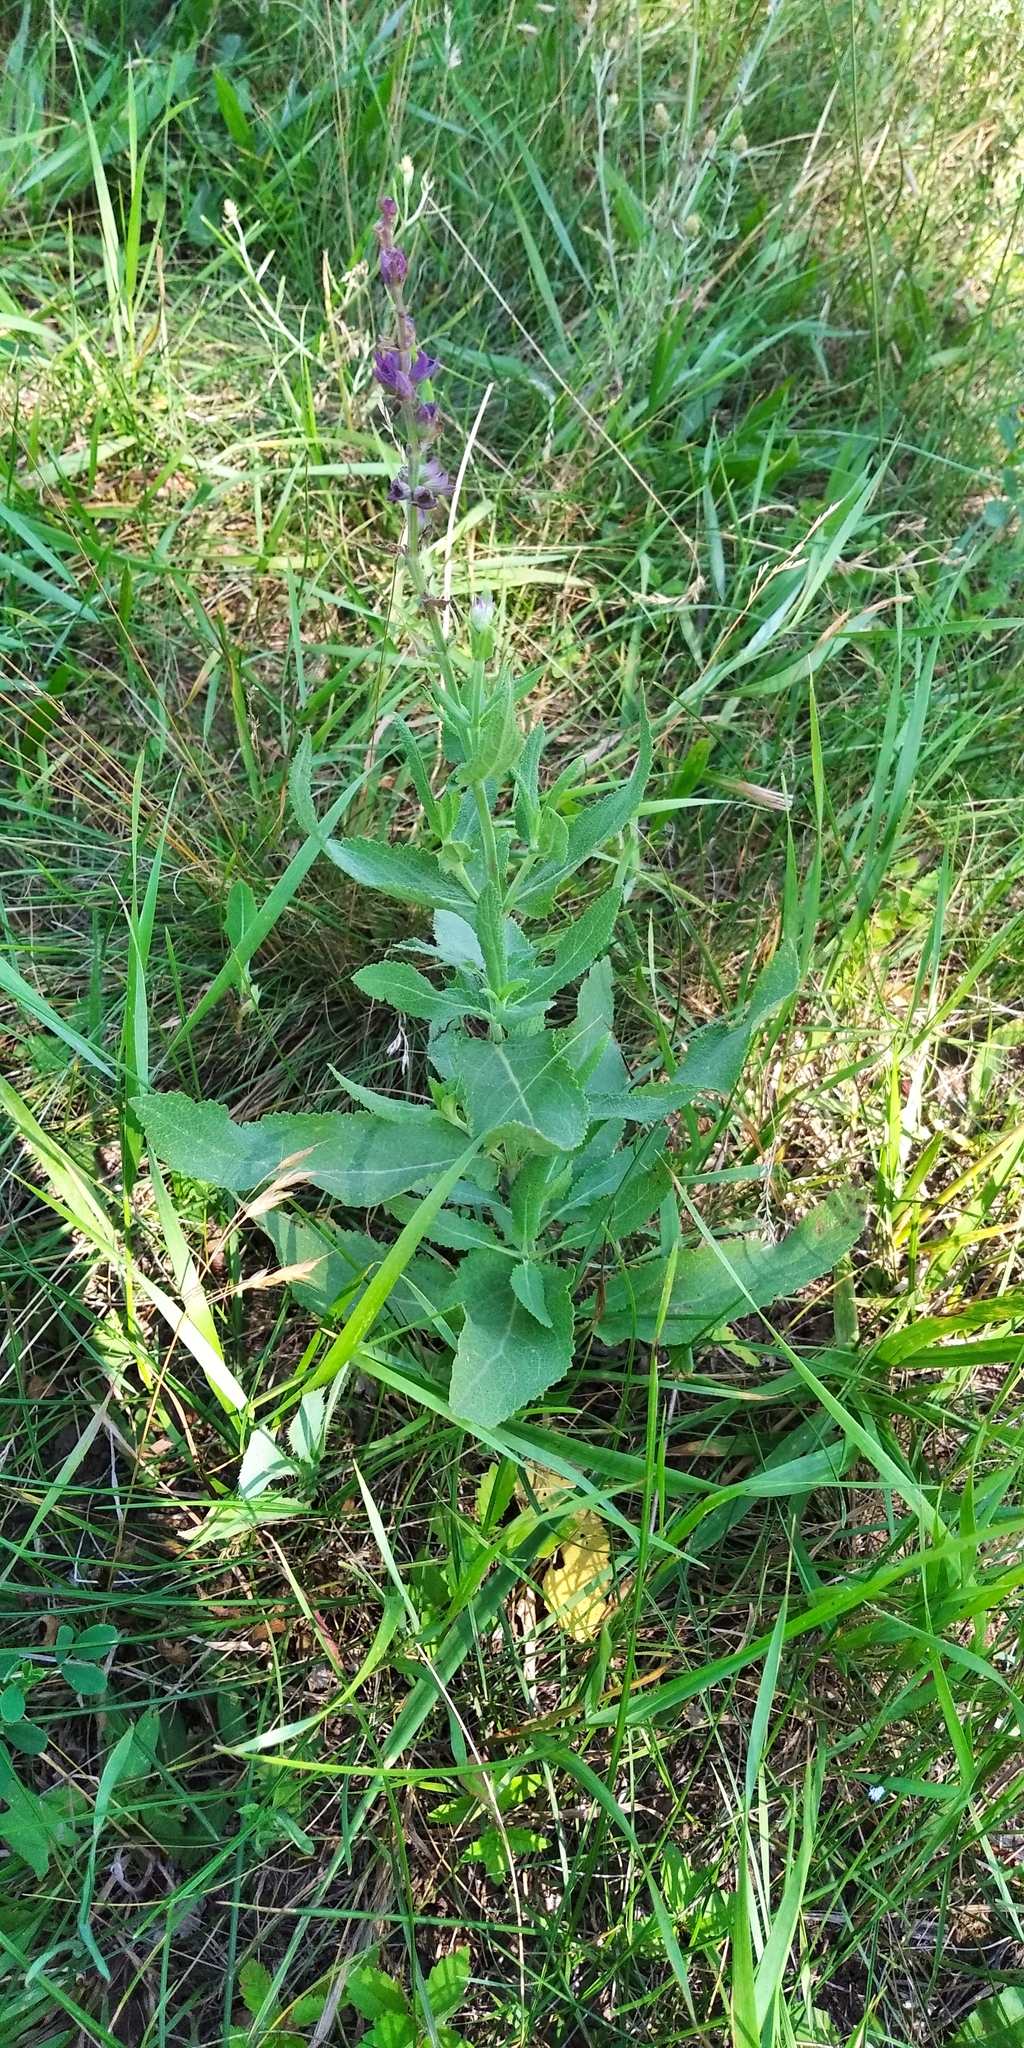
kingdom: Plantae
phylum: Tracheophyta
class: Magnoliopsida
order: Lamiales
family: Lamiaceae
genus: Salvia
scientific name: Salvia nemorosa
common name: Balkan clary
